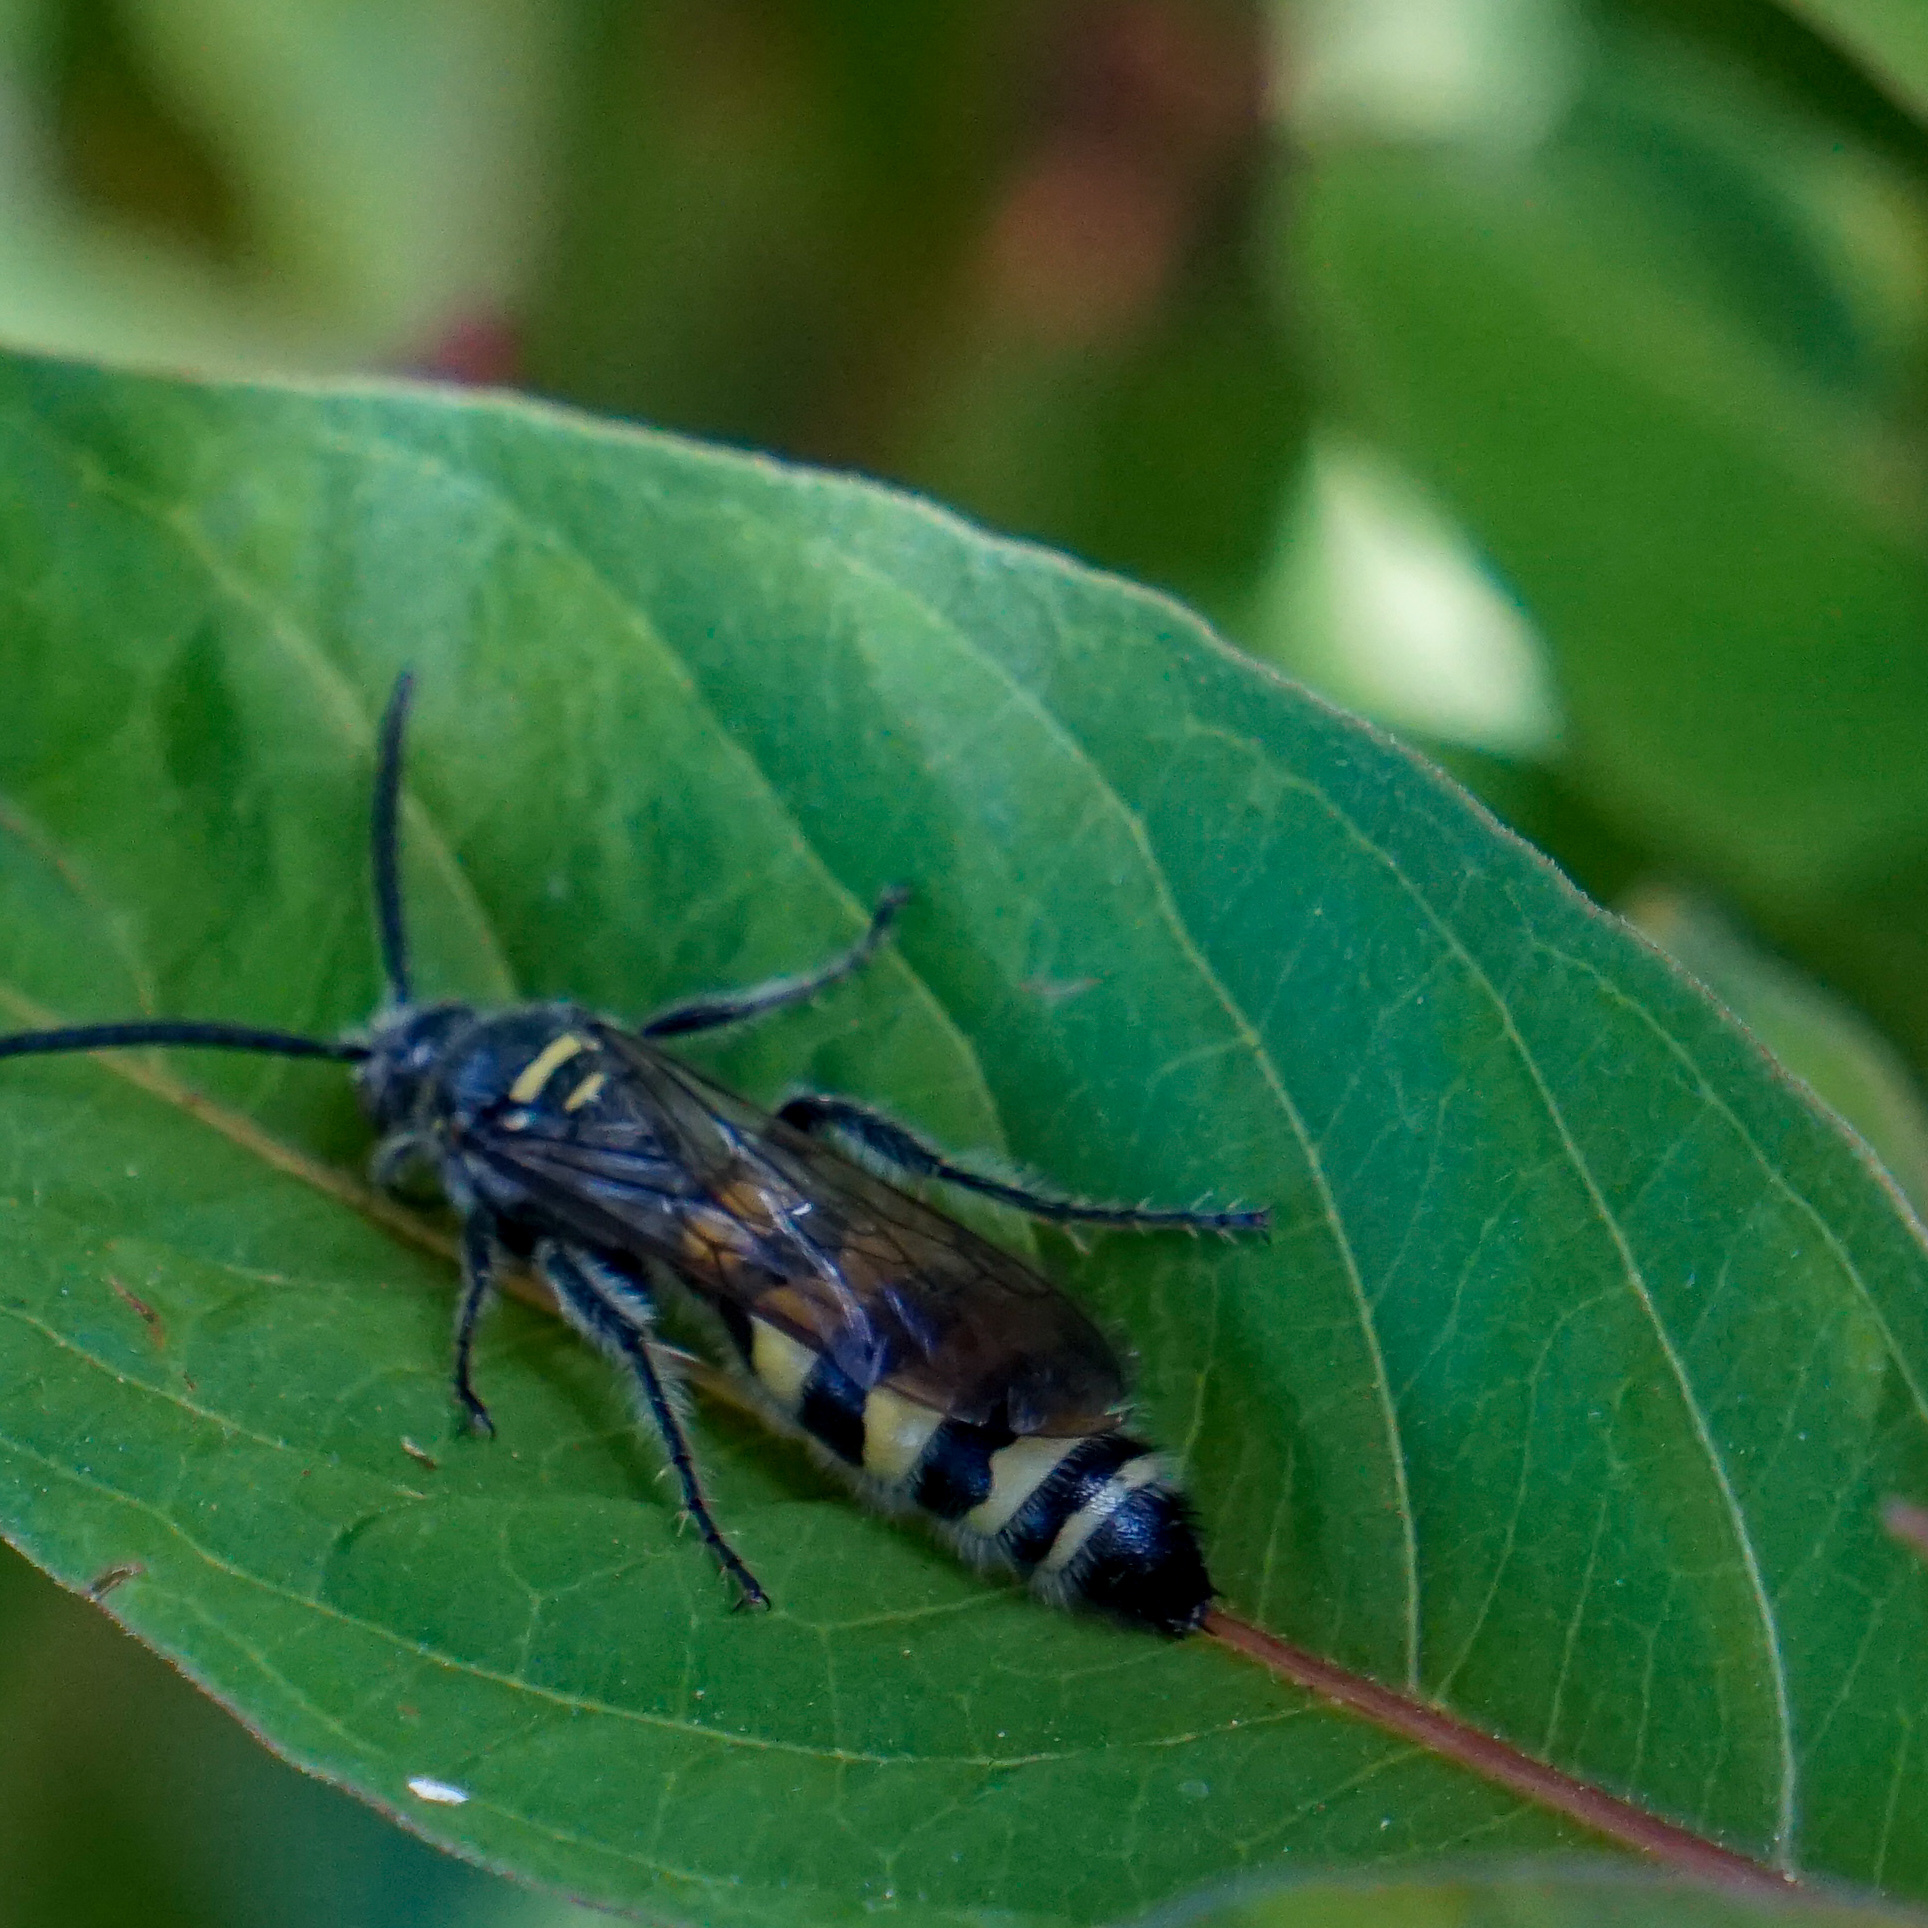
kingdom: Animalia
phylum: Arthropoda
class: Insecta
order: Hymenoptera
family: Scoliidae
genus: Dielis
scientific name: Dielis tolteca
